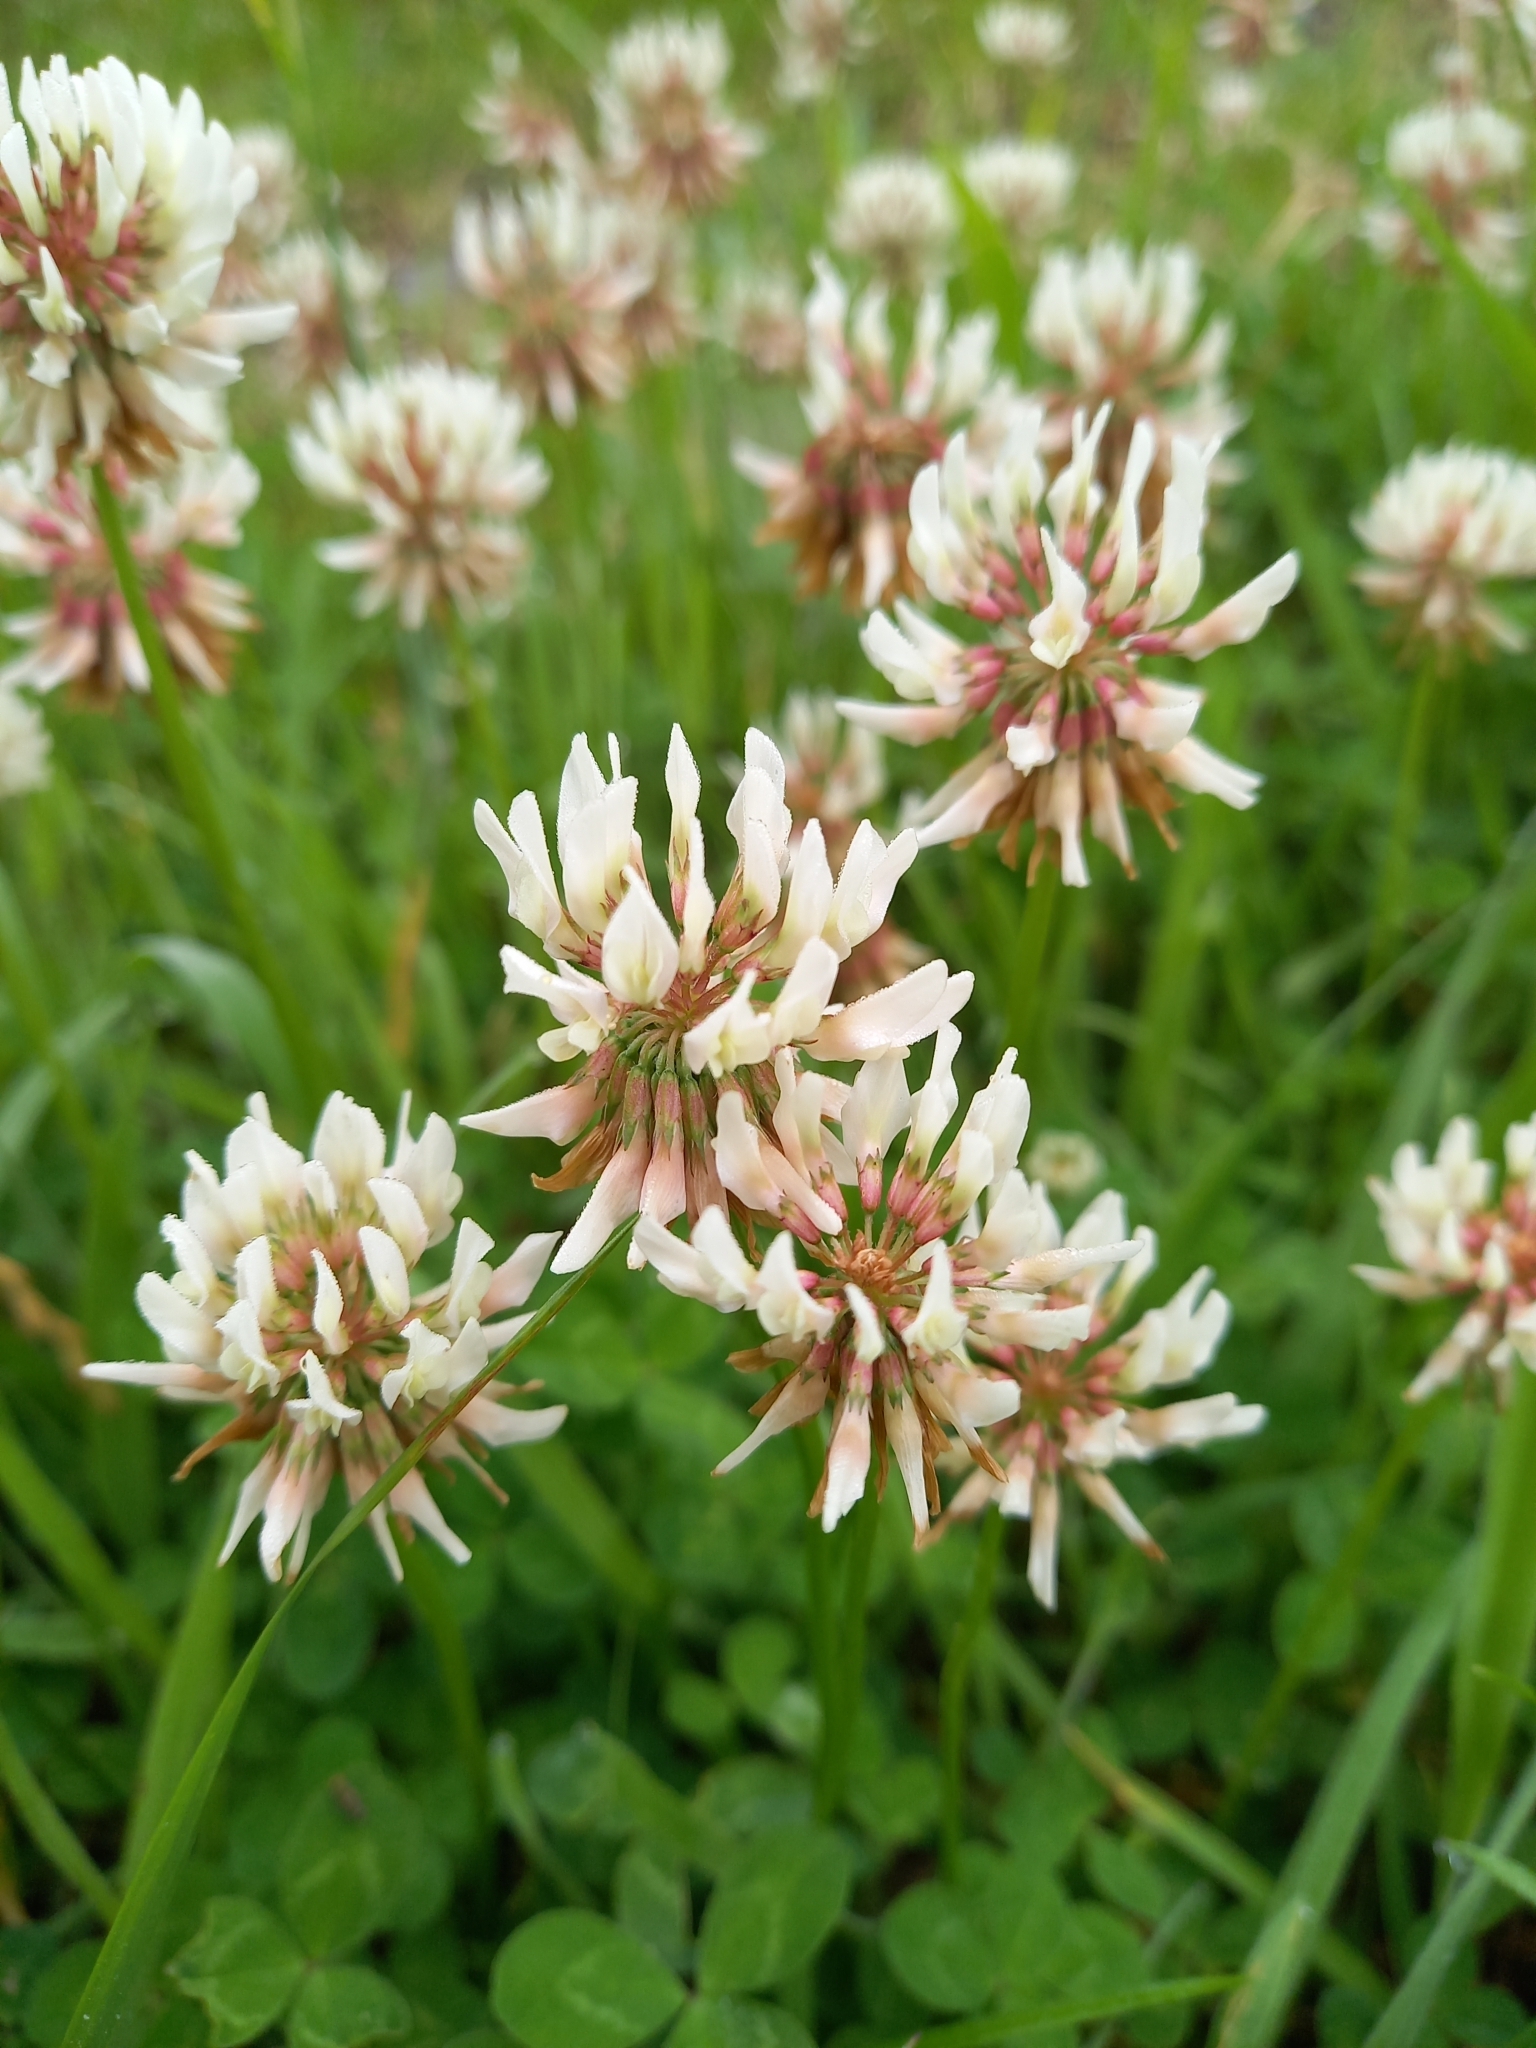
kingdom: Plantae
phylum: Tracheophyta
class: Magnoliopsida
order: Fabales
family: Fabaceae
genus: Trifolium
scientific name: Trifolium repens
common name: White clover
